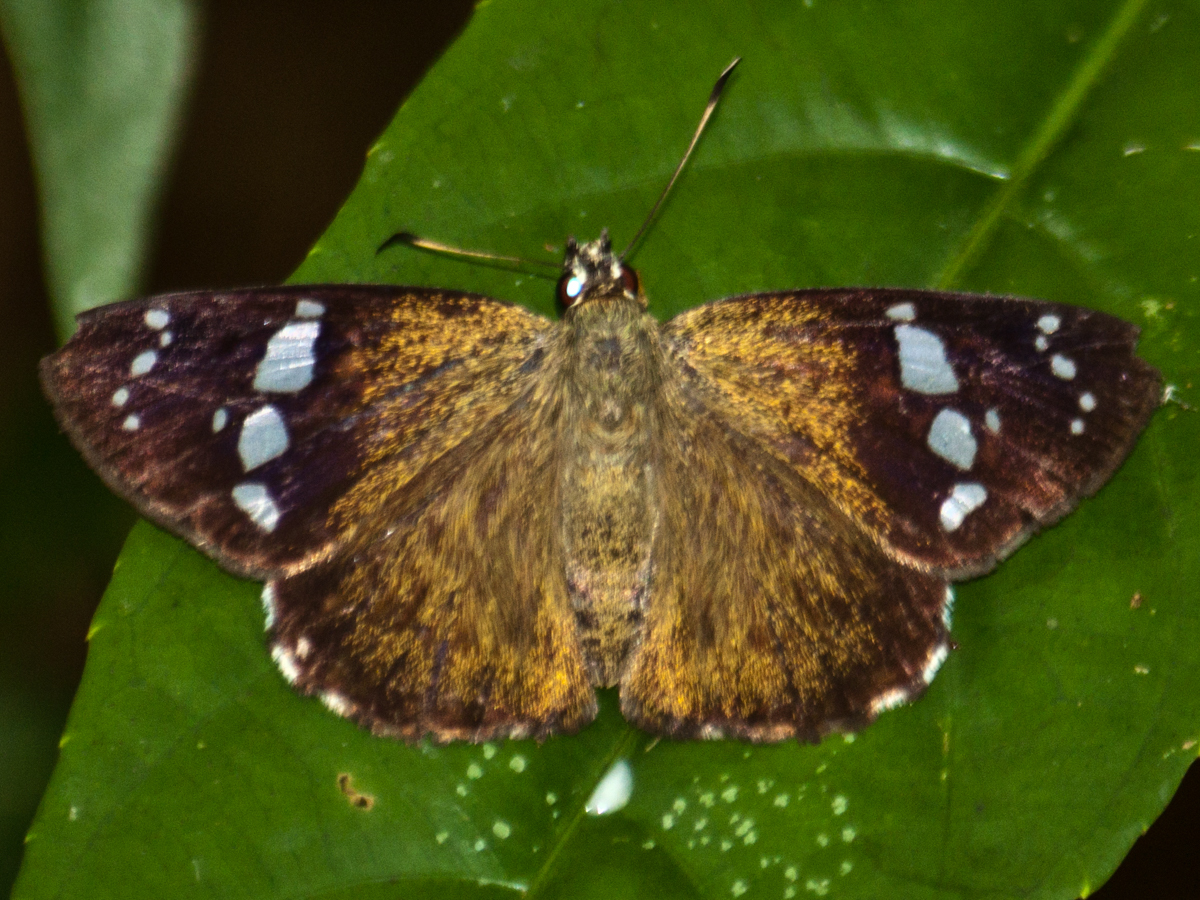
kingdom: Animalia
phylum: Arthropoda
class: Insecta
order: Lepidoptera
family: Hesperiidae
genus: Chamunda
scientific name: Chamunda chamunda
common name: Crescent spotted flat
